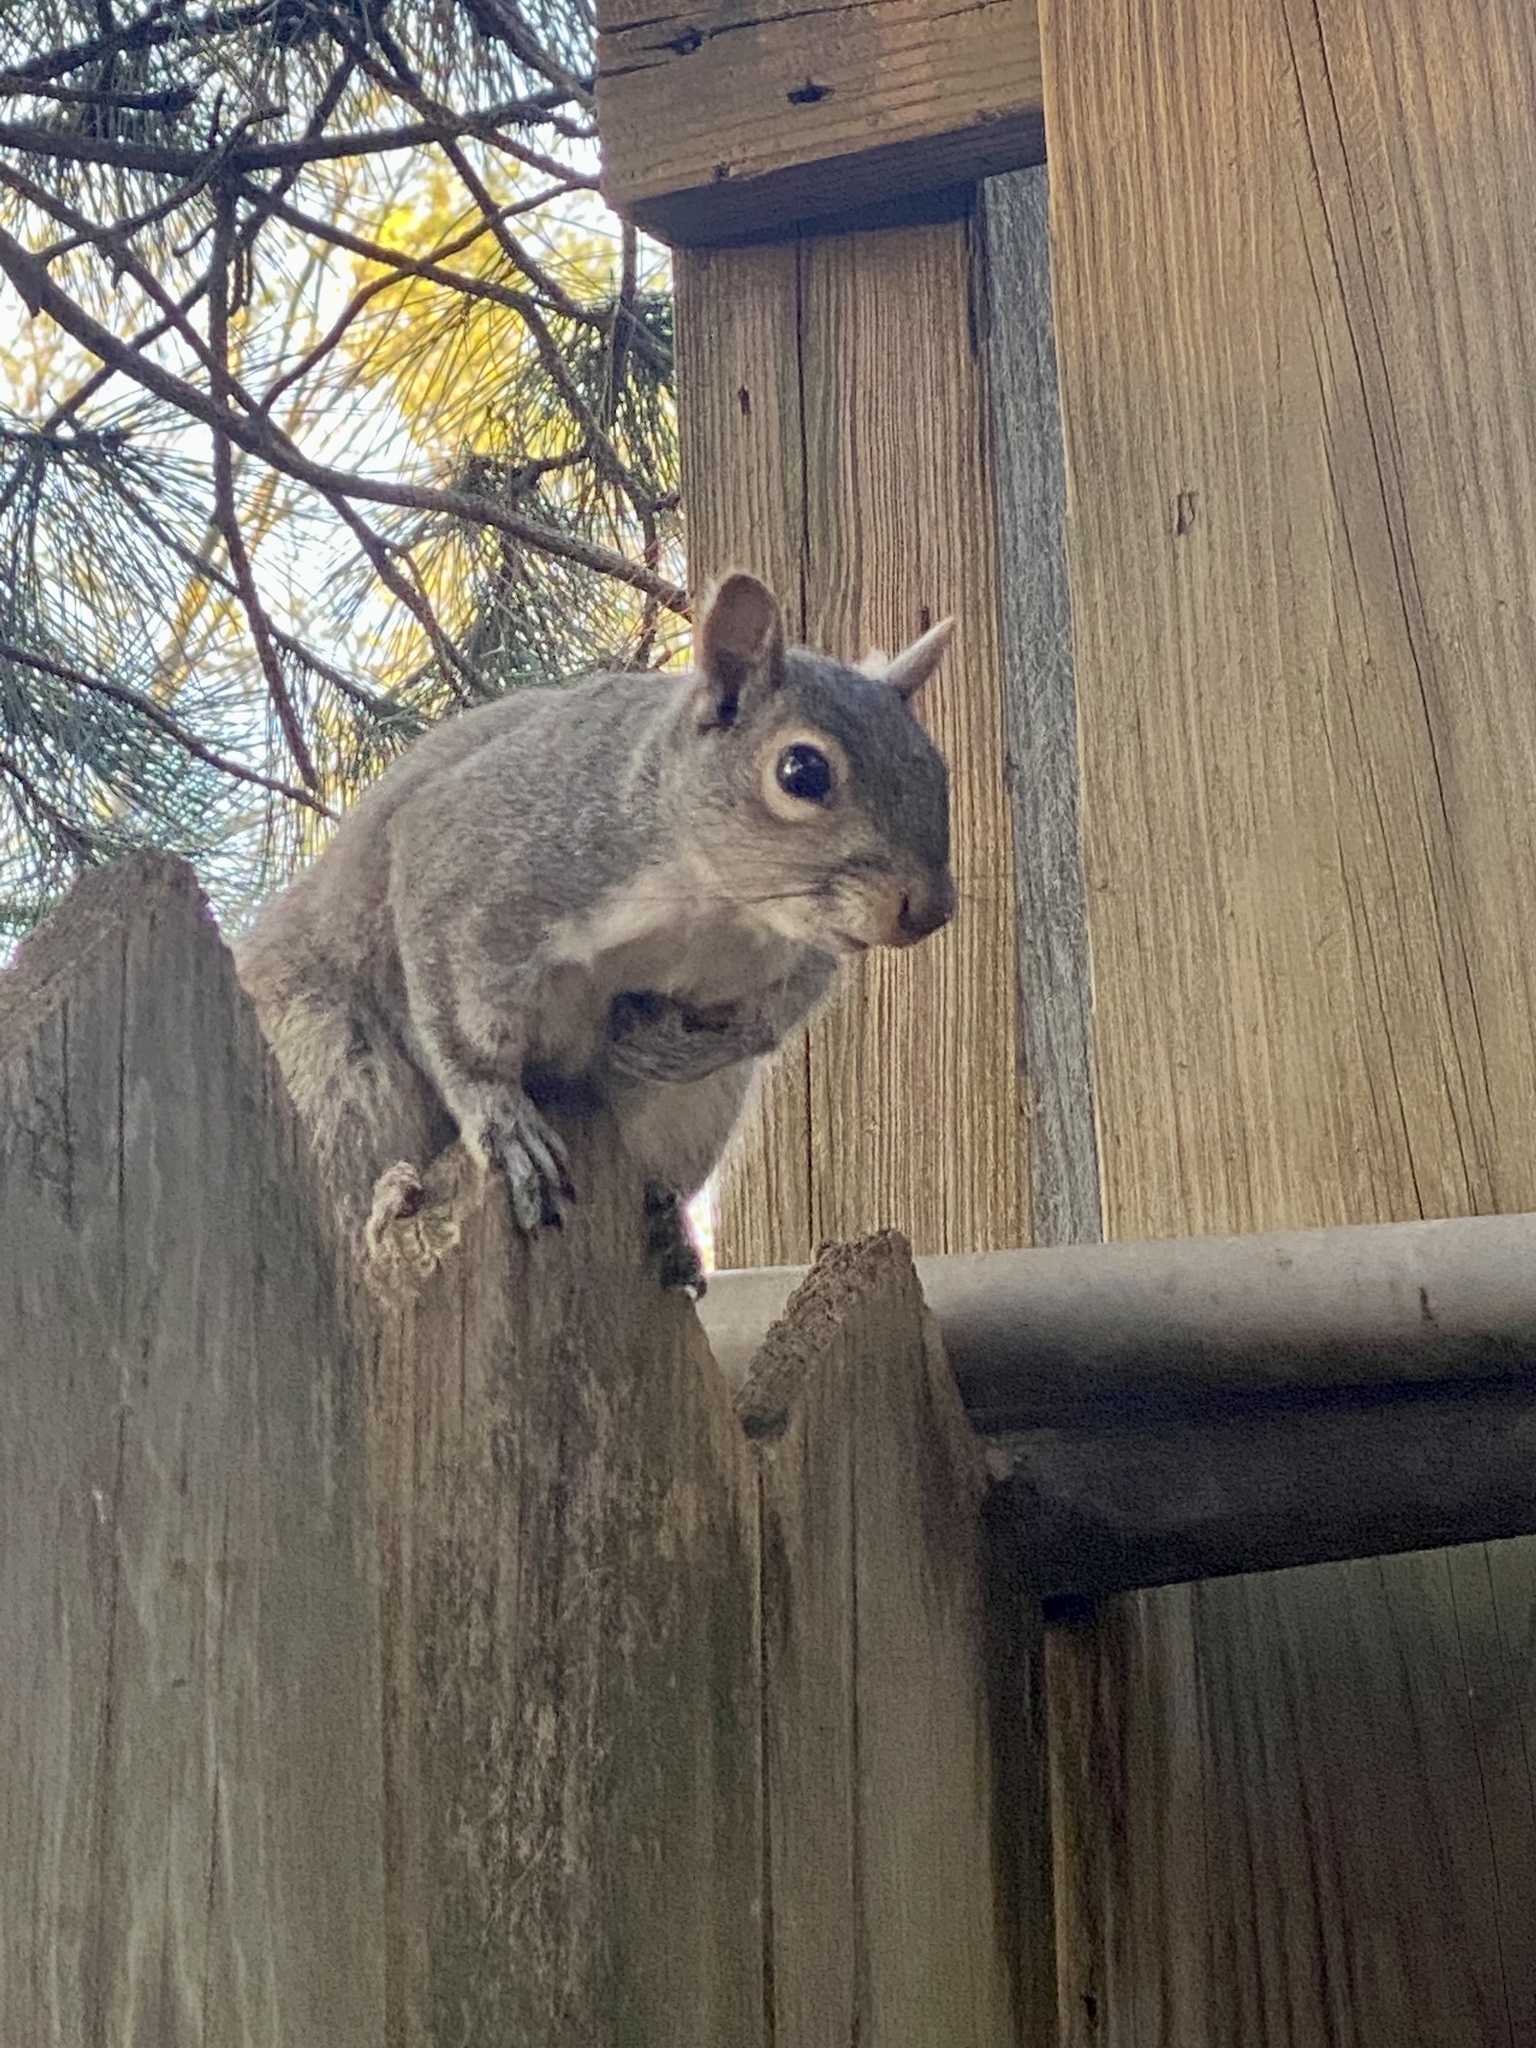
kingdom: Animalia
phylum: Chordata
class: Mammalia
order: Rodentia
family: Sciuridae
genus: Sciurus
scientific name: Sciurus carolinensis
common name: Eastern gray squirrel
